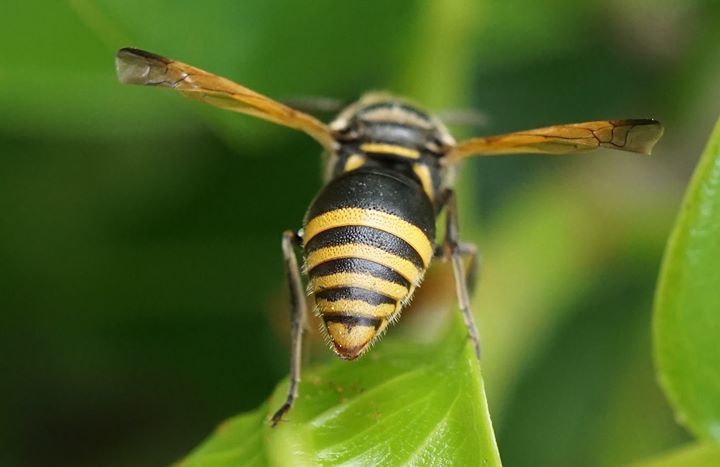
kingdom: Animalia
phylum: Arthropoda
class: Insecta
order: Hymenoptera
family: Eumenidae
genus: Pachodynerus
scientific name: Pachodynerus nasidens
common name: Key hole wasp
